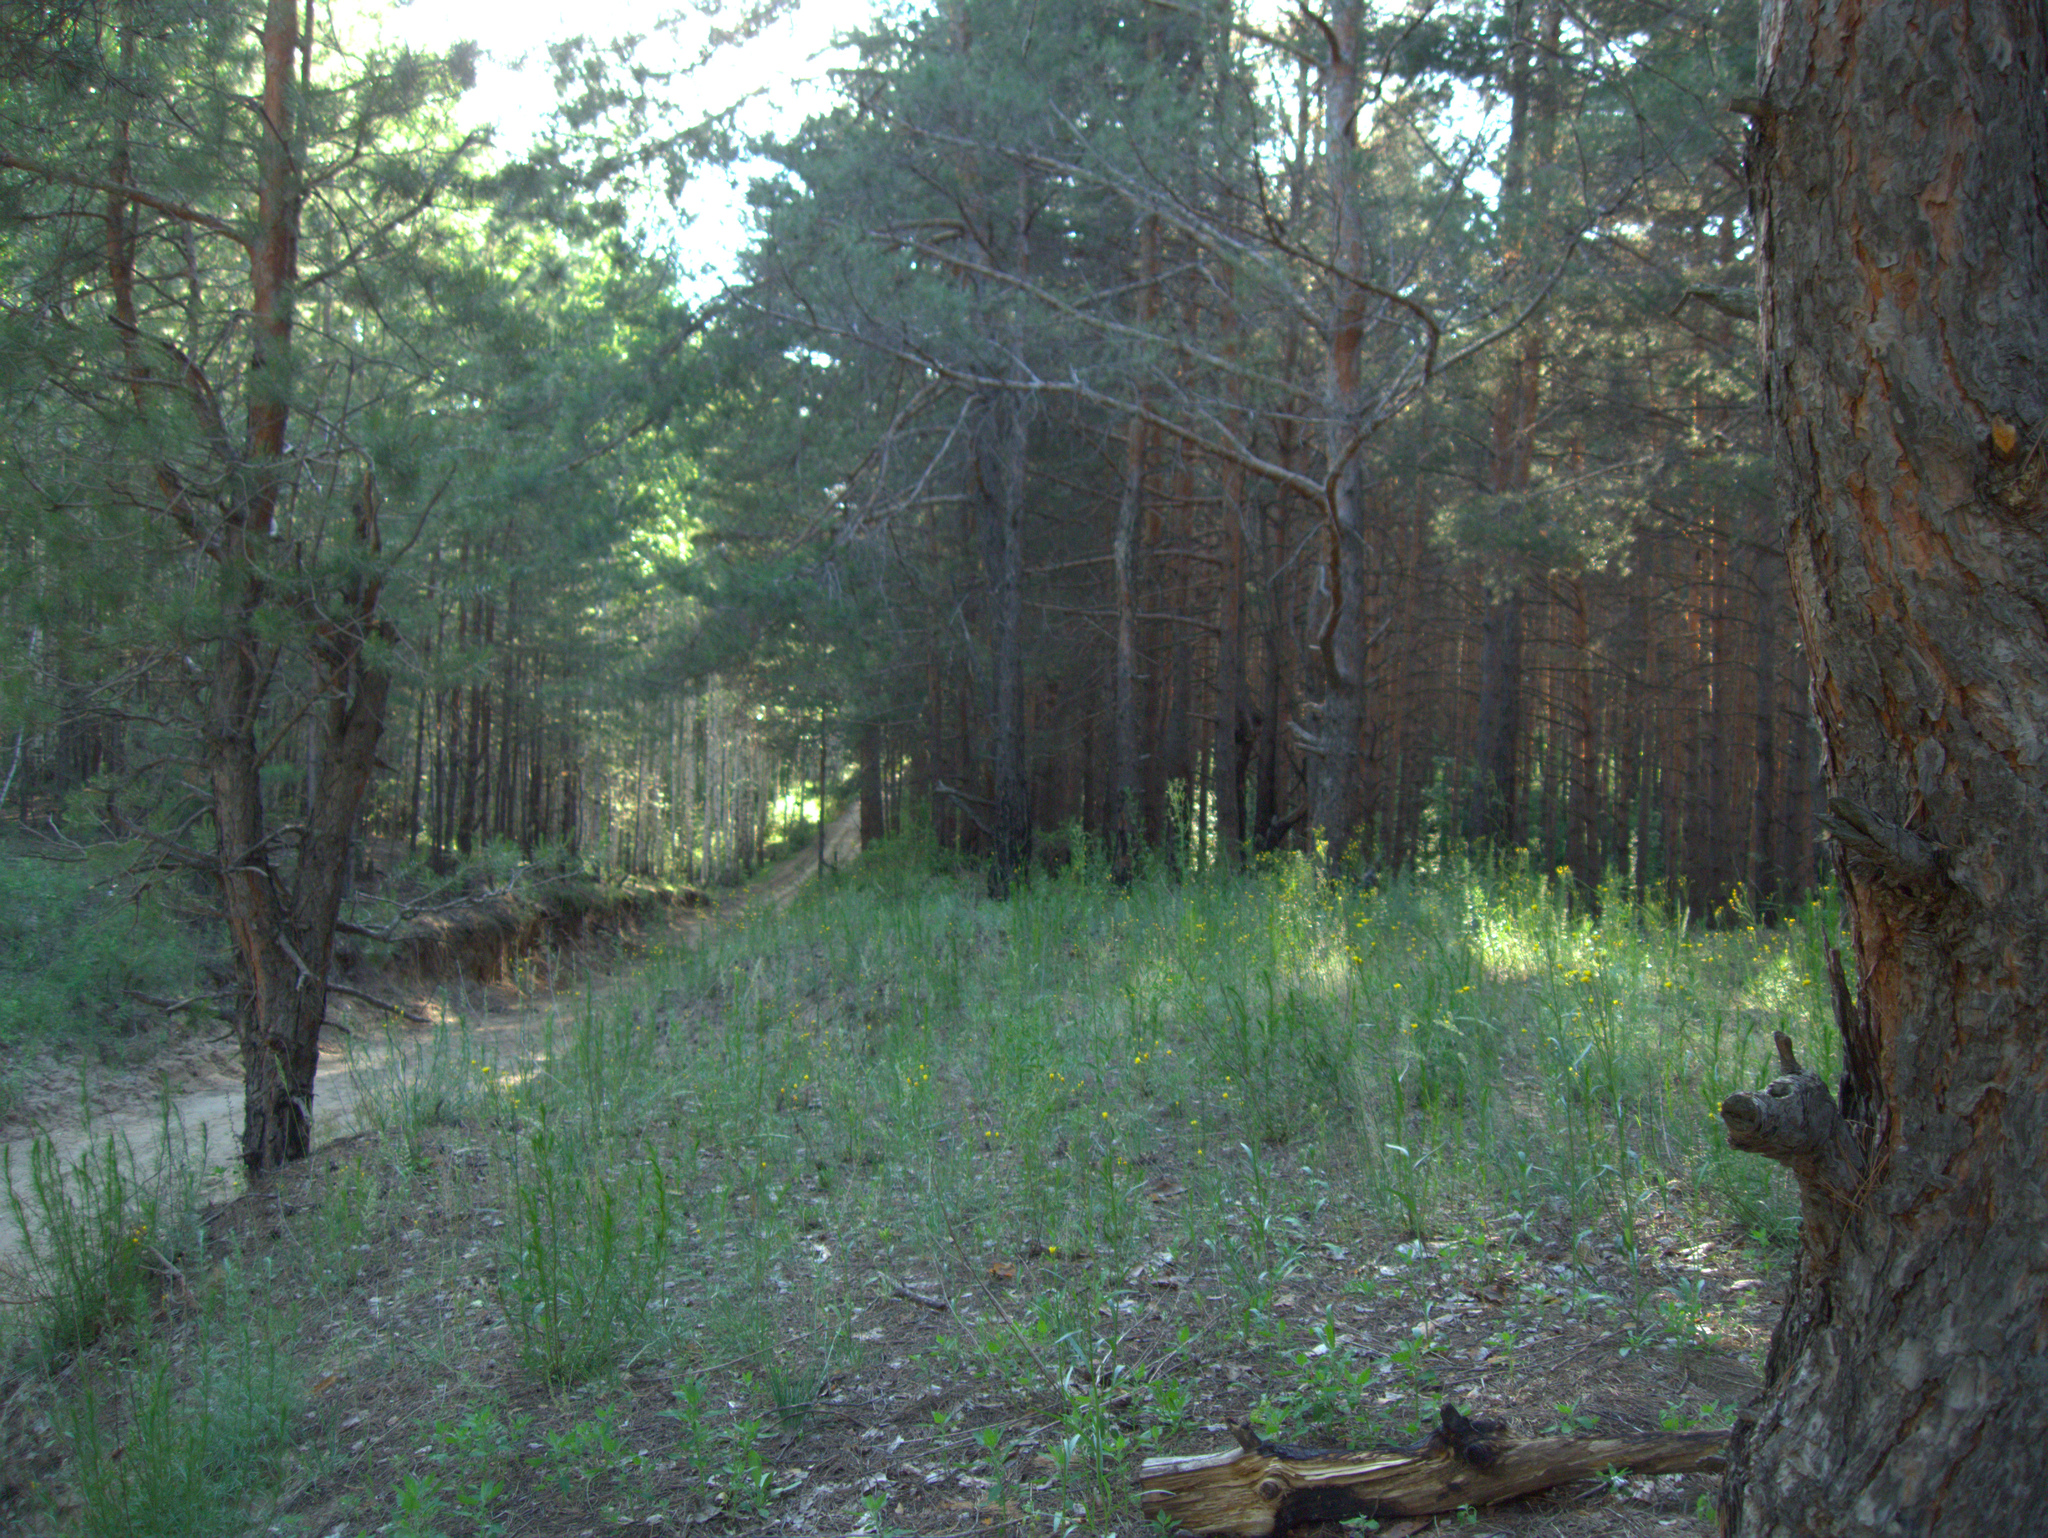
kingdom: Plantae
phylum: Tracheophyta
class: Pinopsida
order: Pinales
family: Pinaceae
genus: Pinus
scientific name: Pinus sylvestris
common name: Scots pine
